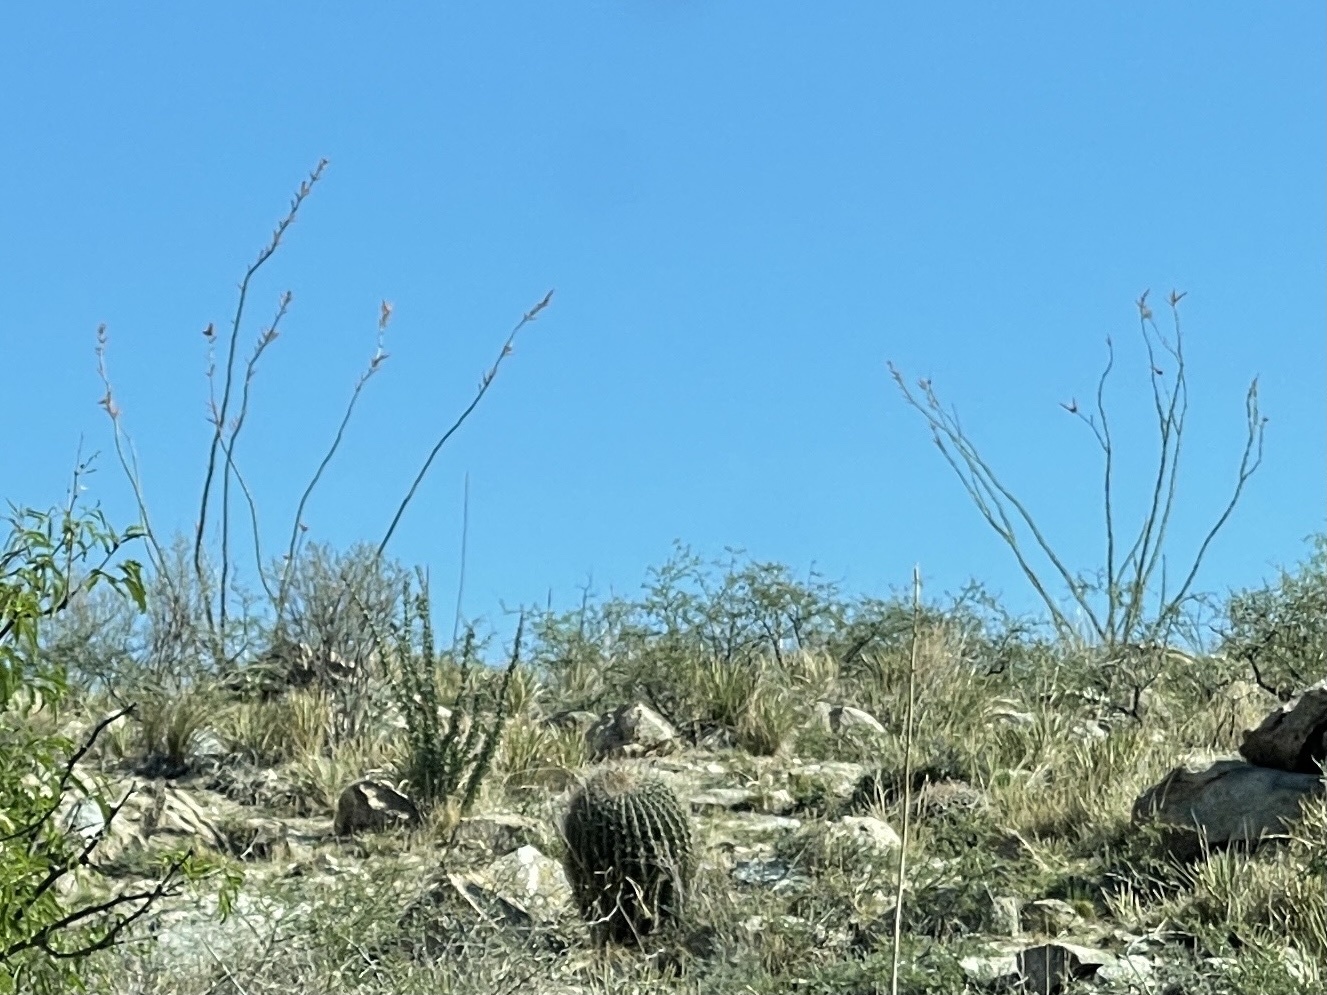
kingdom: Plantae
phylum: Tracheophyta
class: Magnoliopsida
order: Ericales
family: Fouquieriaceae
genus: Fouquieria
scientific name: Fouquieria splendens
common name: Vine-cactus
